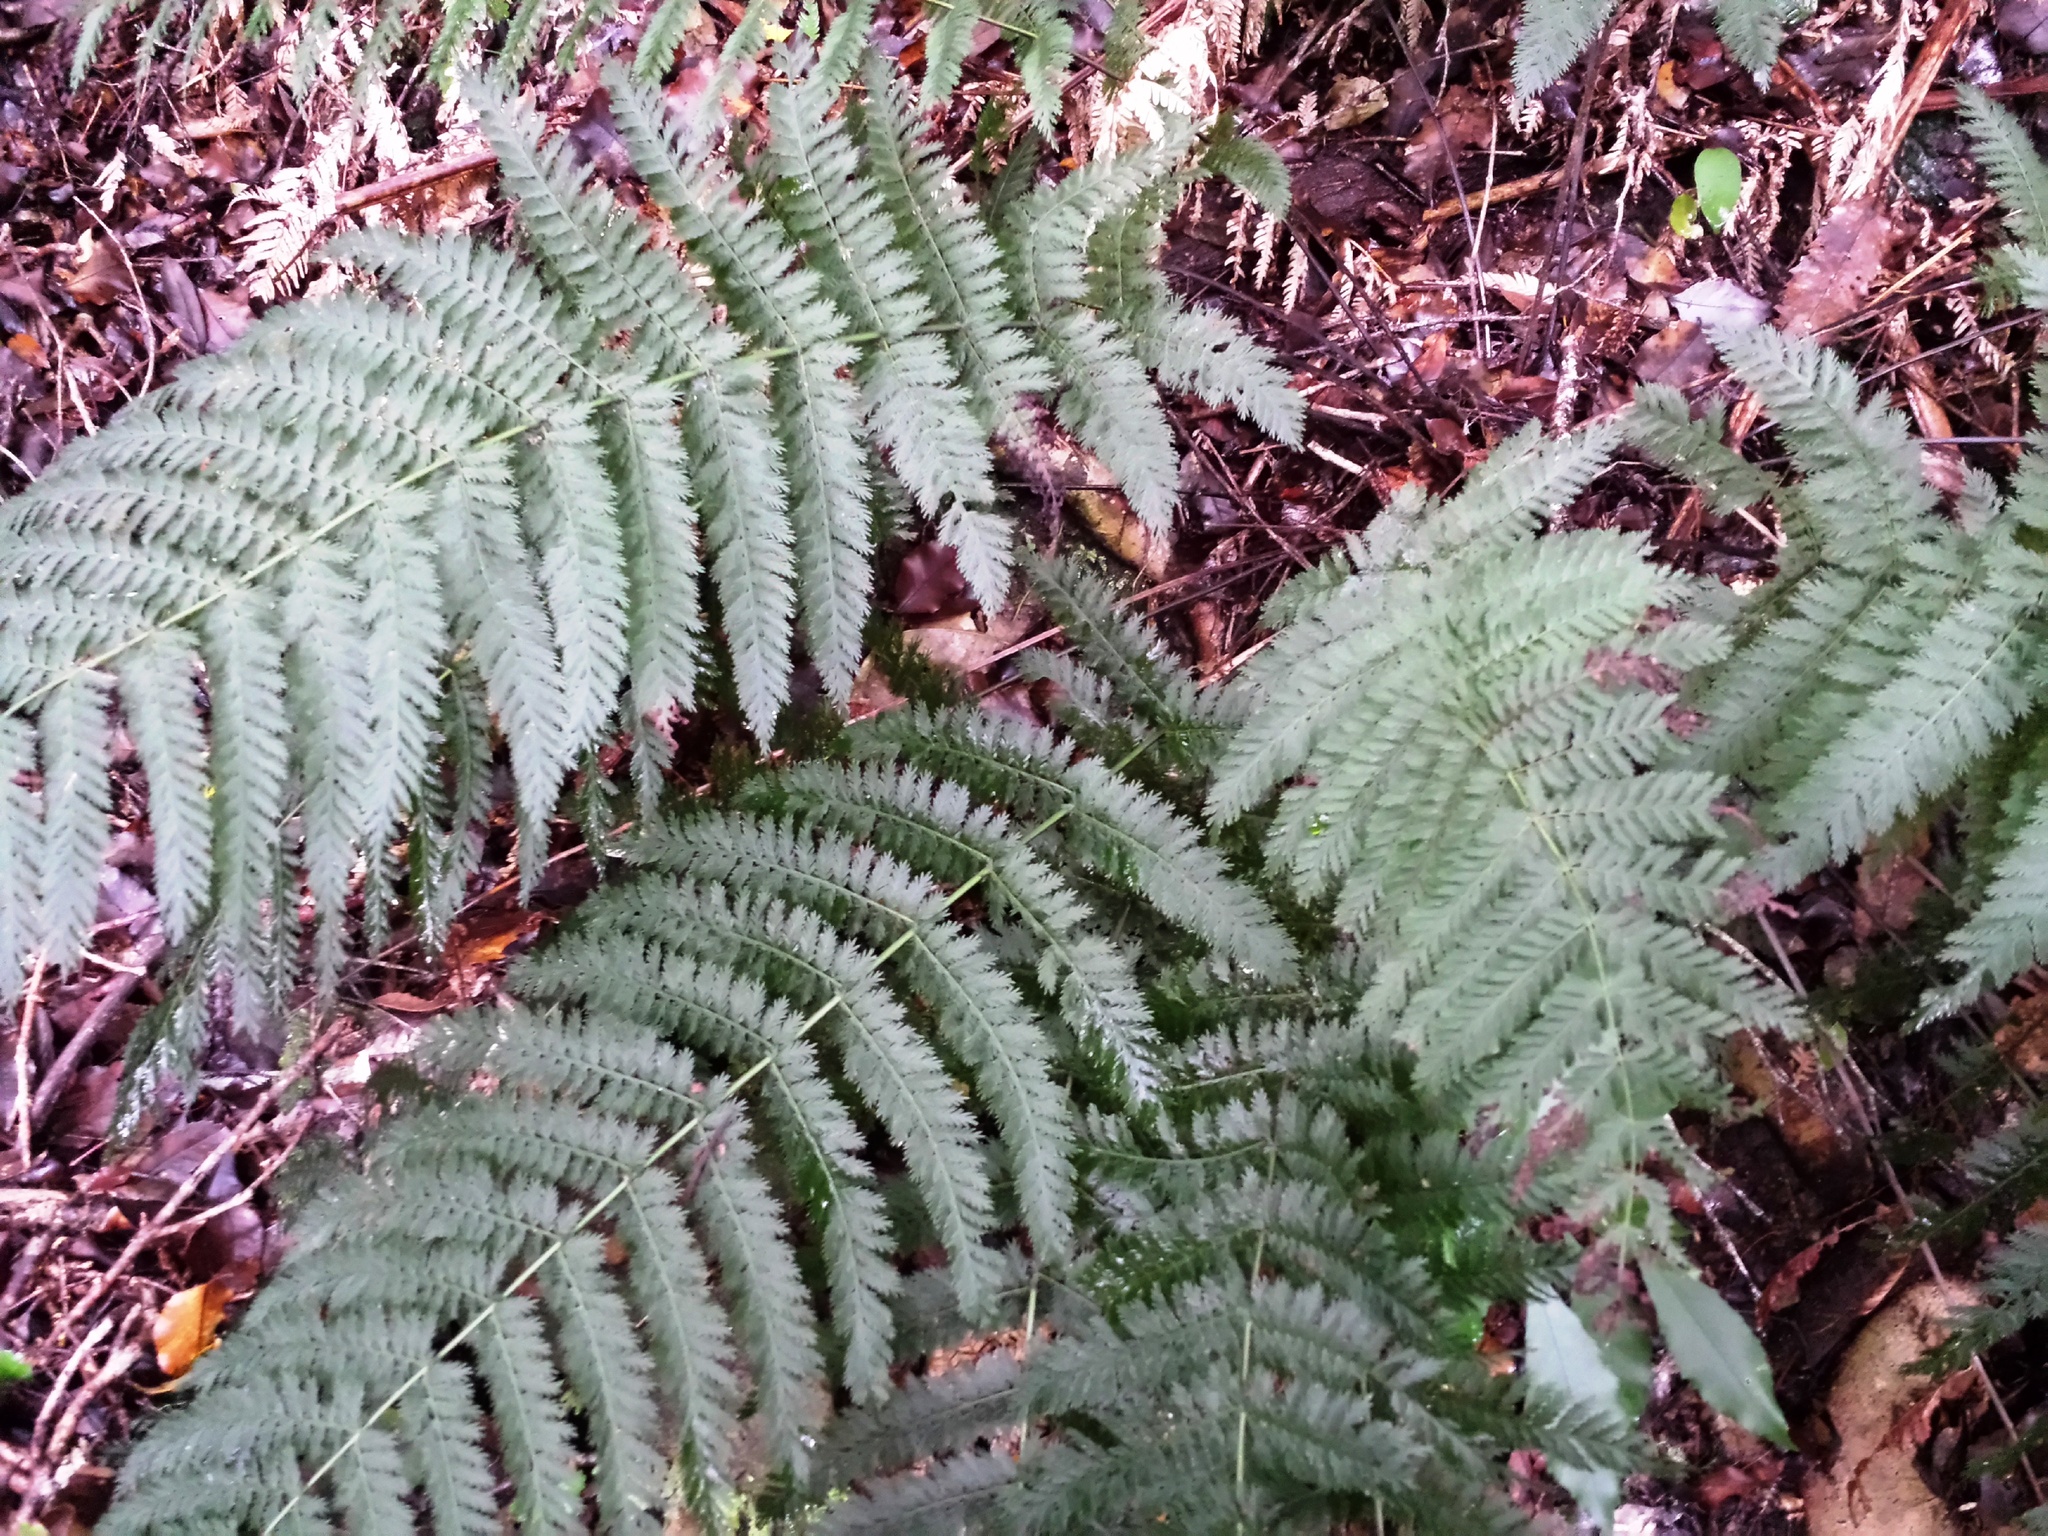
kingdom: Plantae
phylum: Tracheophyta
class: Polypodiopsida
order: Osmundales
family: Osmundaceae
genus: Leptopteris
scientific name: Leptopteris hymenophylloides
